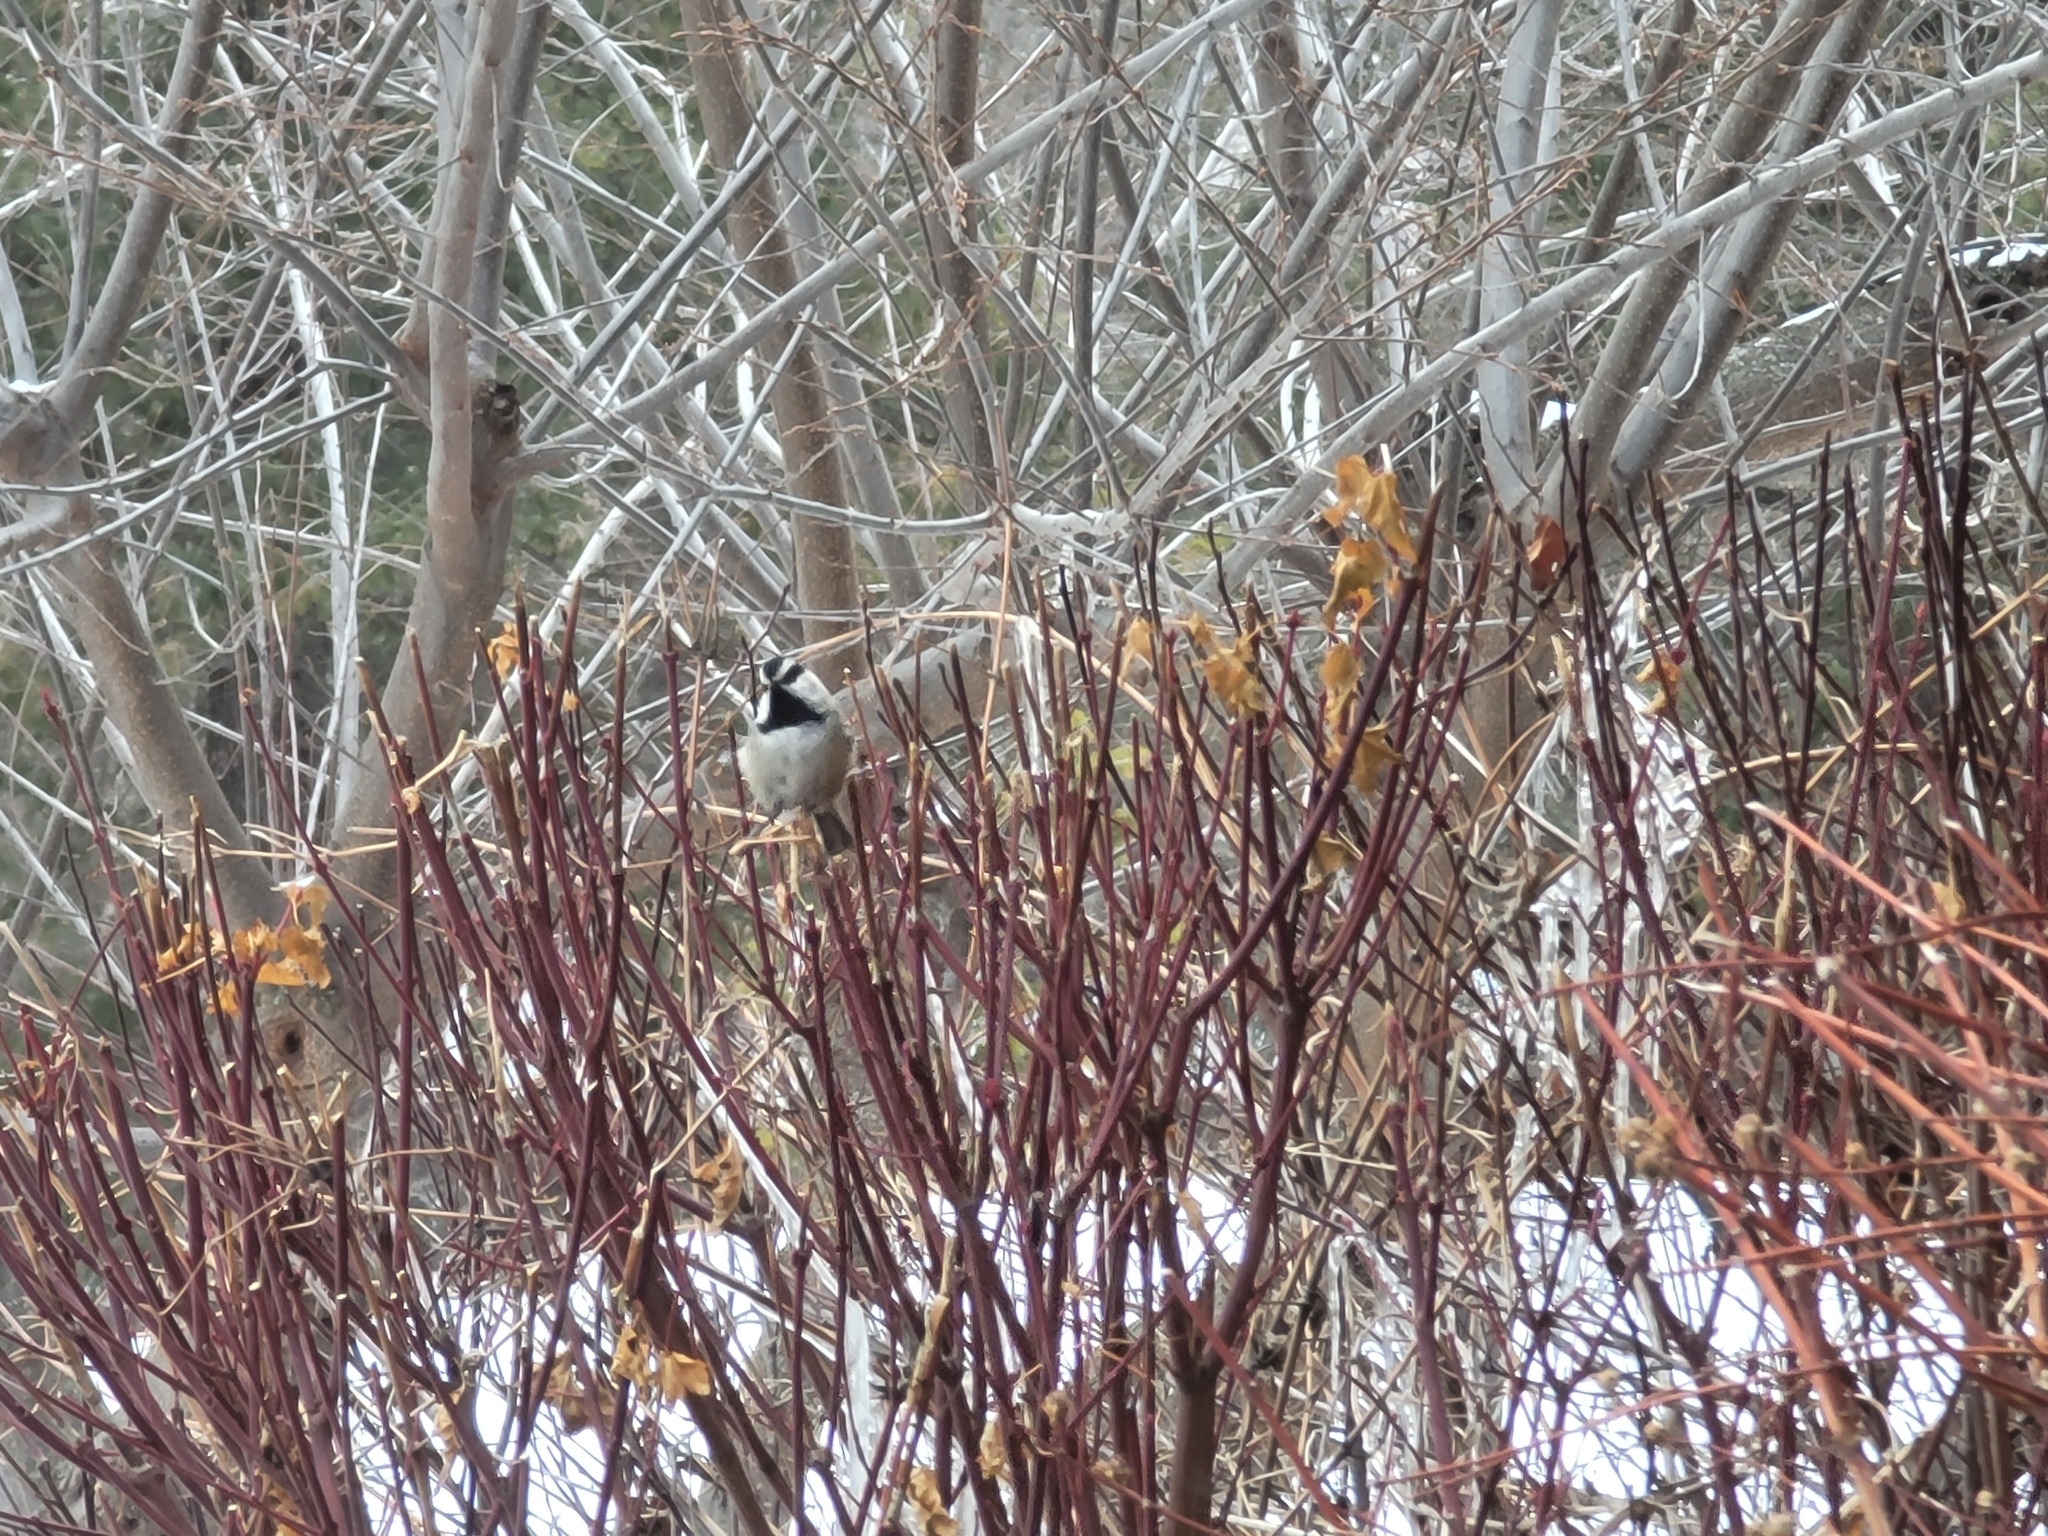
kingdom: Animalia
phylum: Chordata
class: Aves
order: Passeriformes
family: Paridae
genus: Poecile
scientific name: Poecile gambeli
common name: Mountain chickadee
